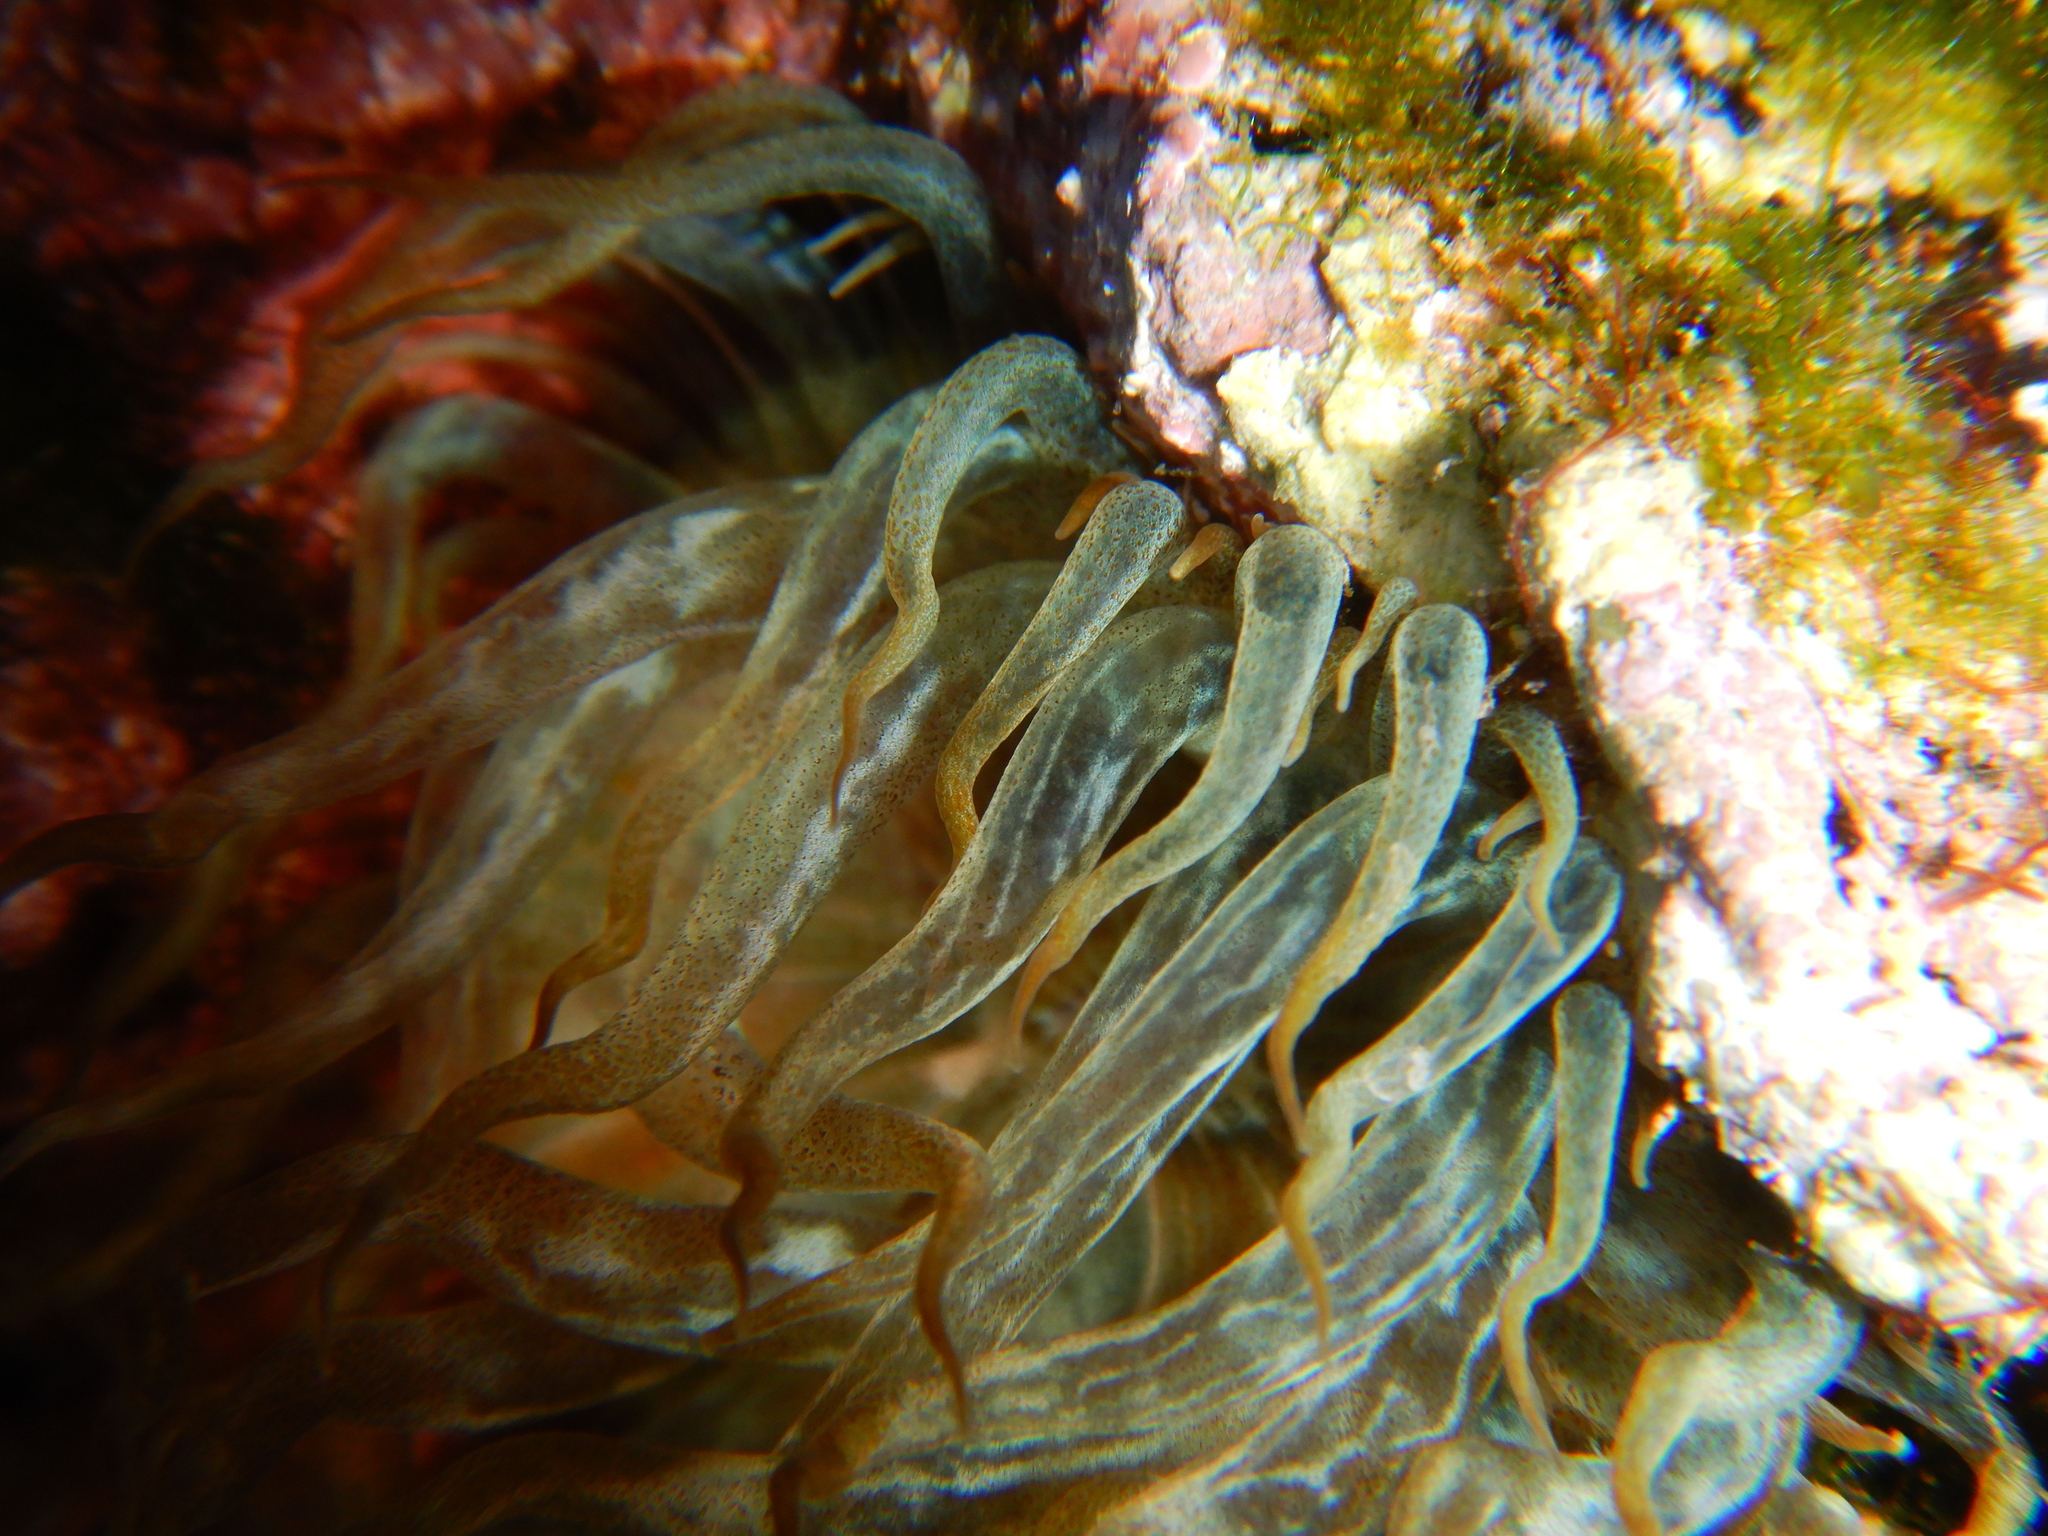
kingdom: Animalia
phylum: Cnidaria
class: Anthozoa
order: Actiniaria
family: Aiptasiidae
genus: Aiptasia
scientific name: Aiptasia mutabilis
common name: Trumpet anemone
